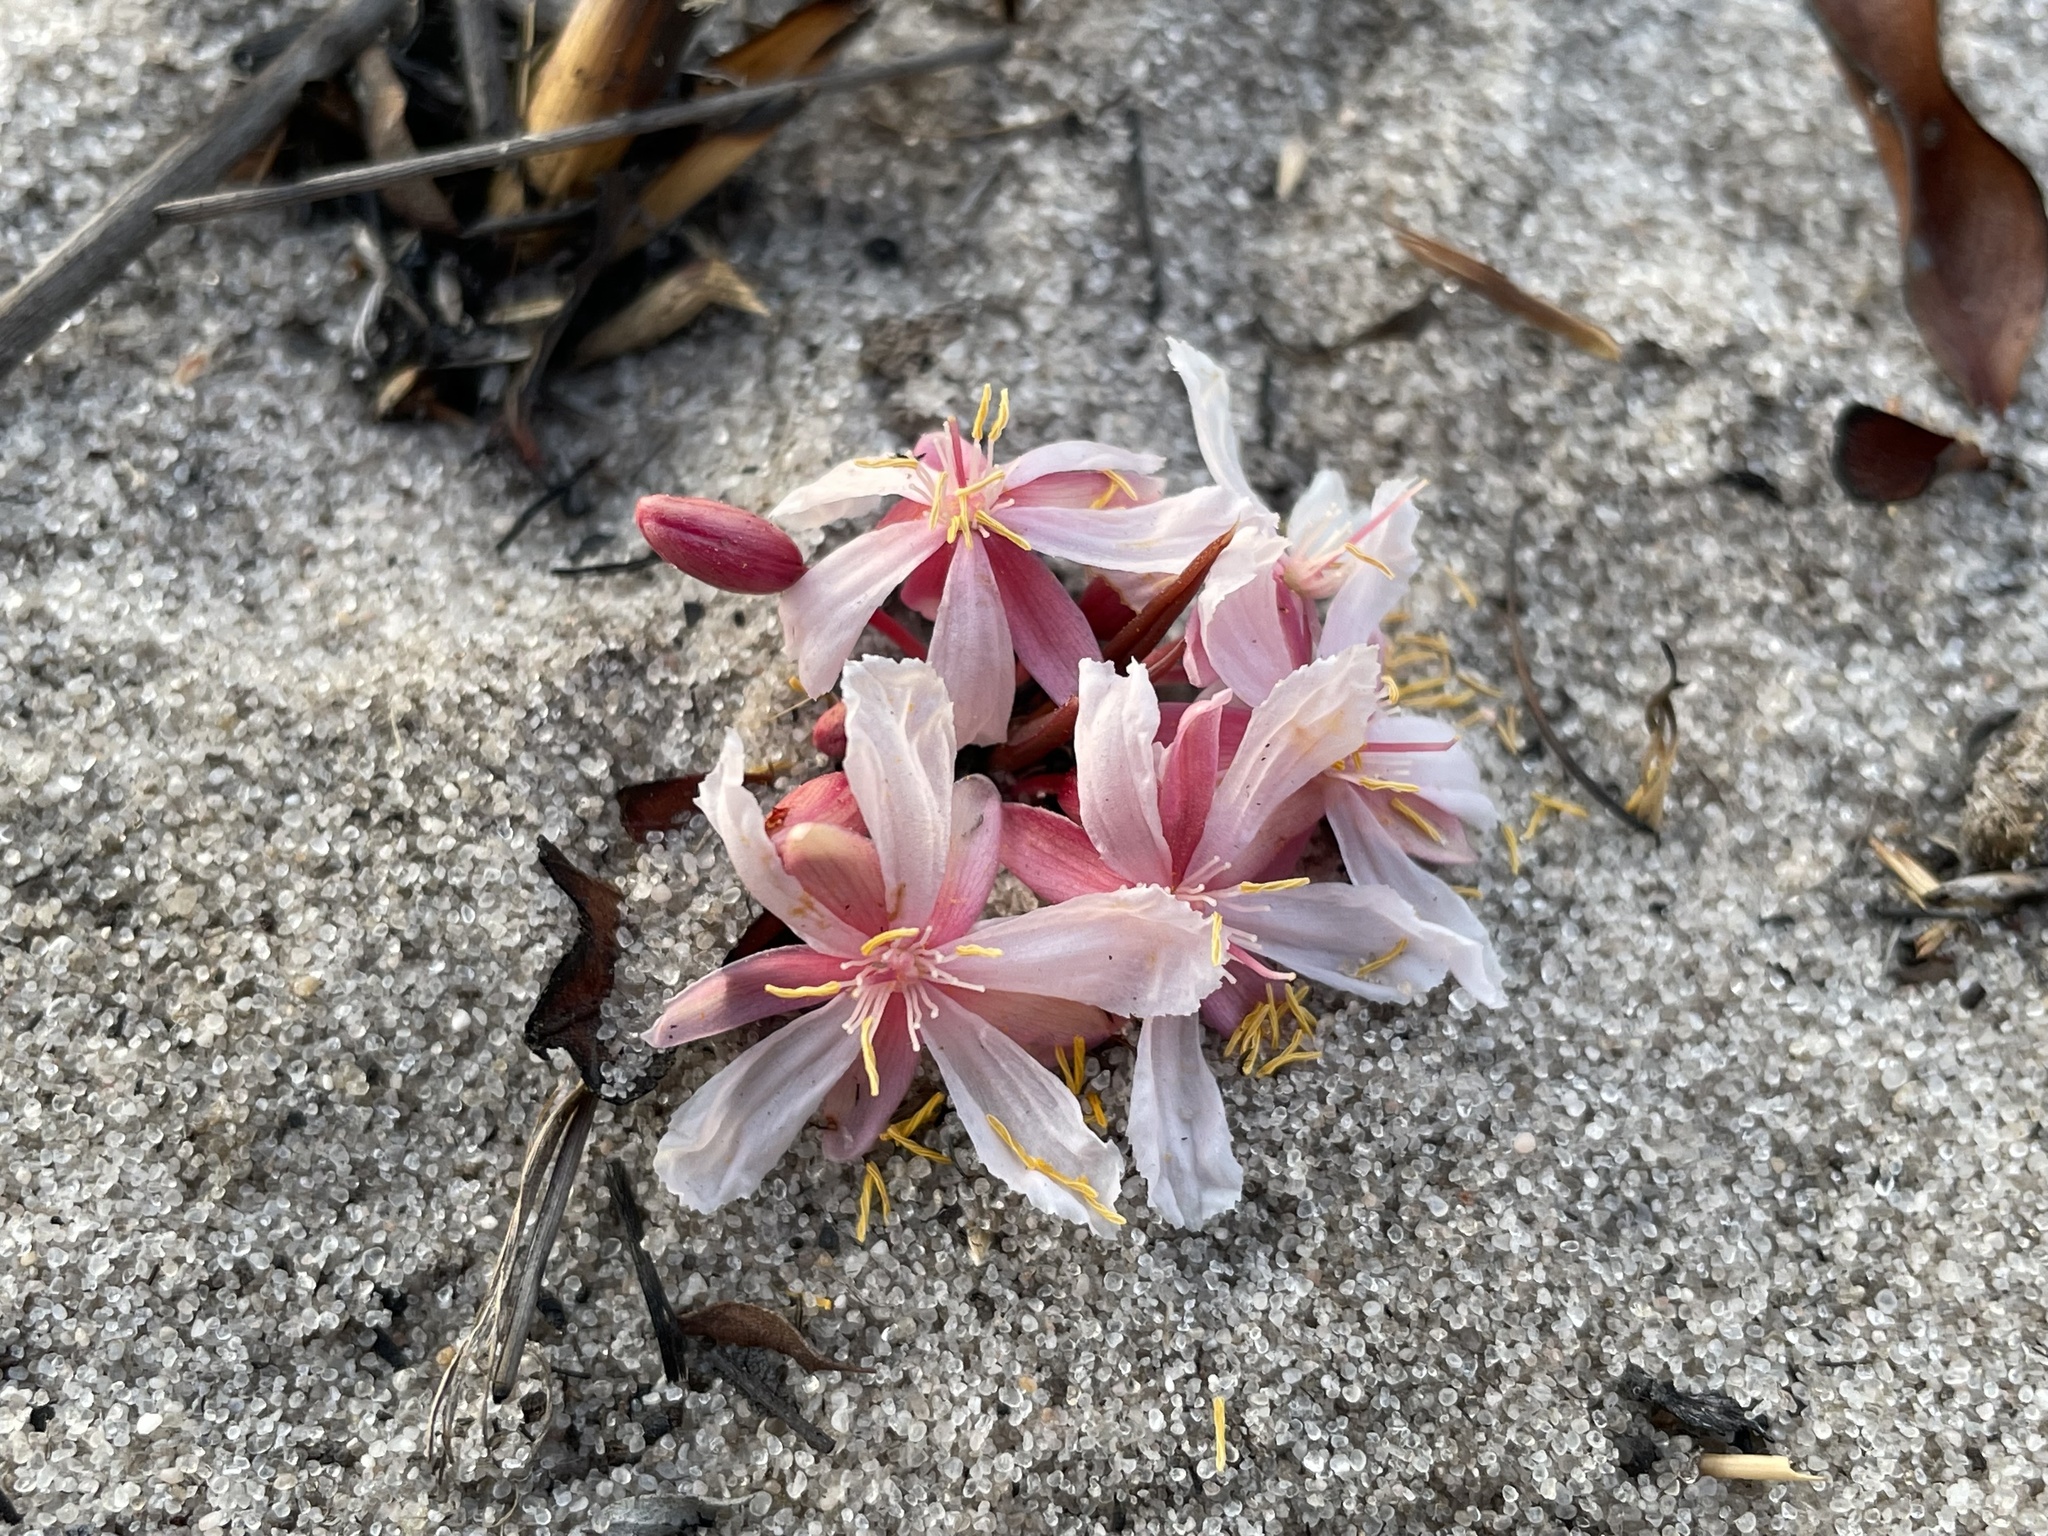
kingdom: Plantae
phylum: Tracheophyta
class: Magnoliopsida
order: Malpighiales
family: Ochnaceae
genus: Ochna
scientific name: Ochna arenaria
